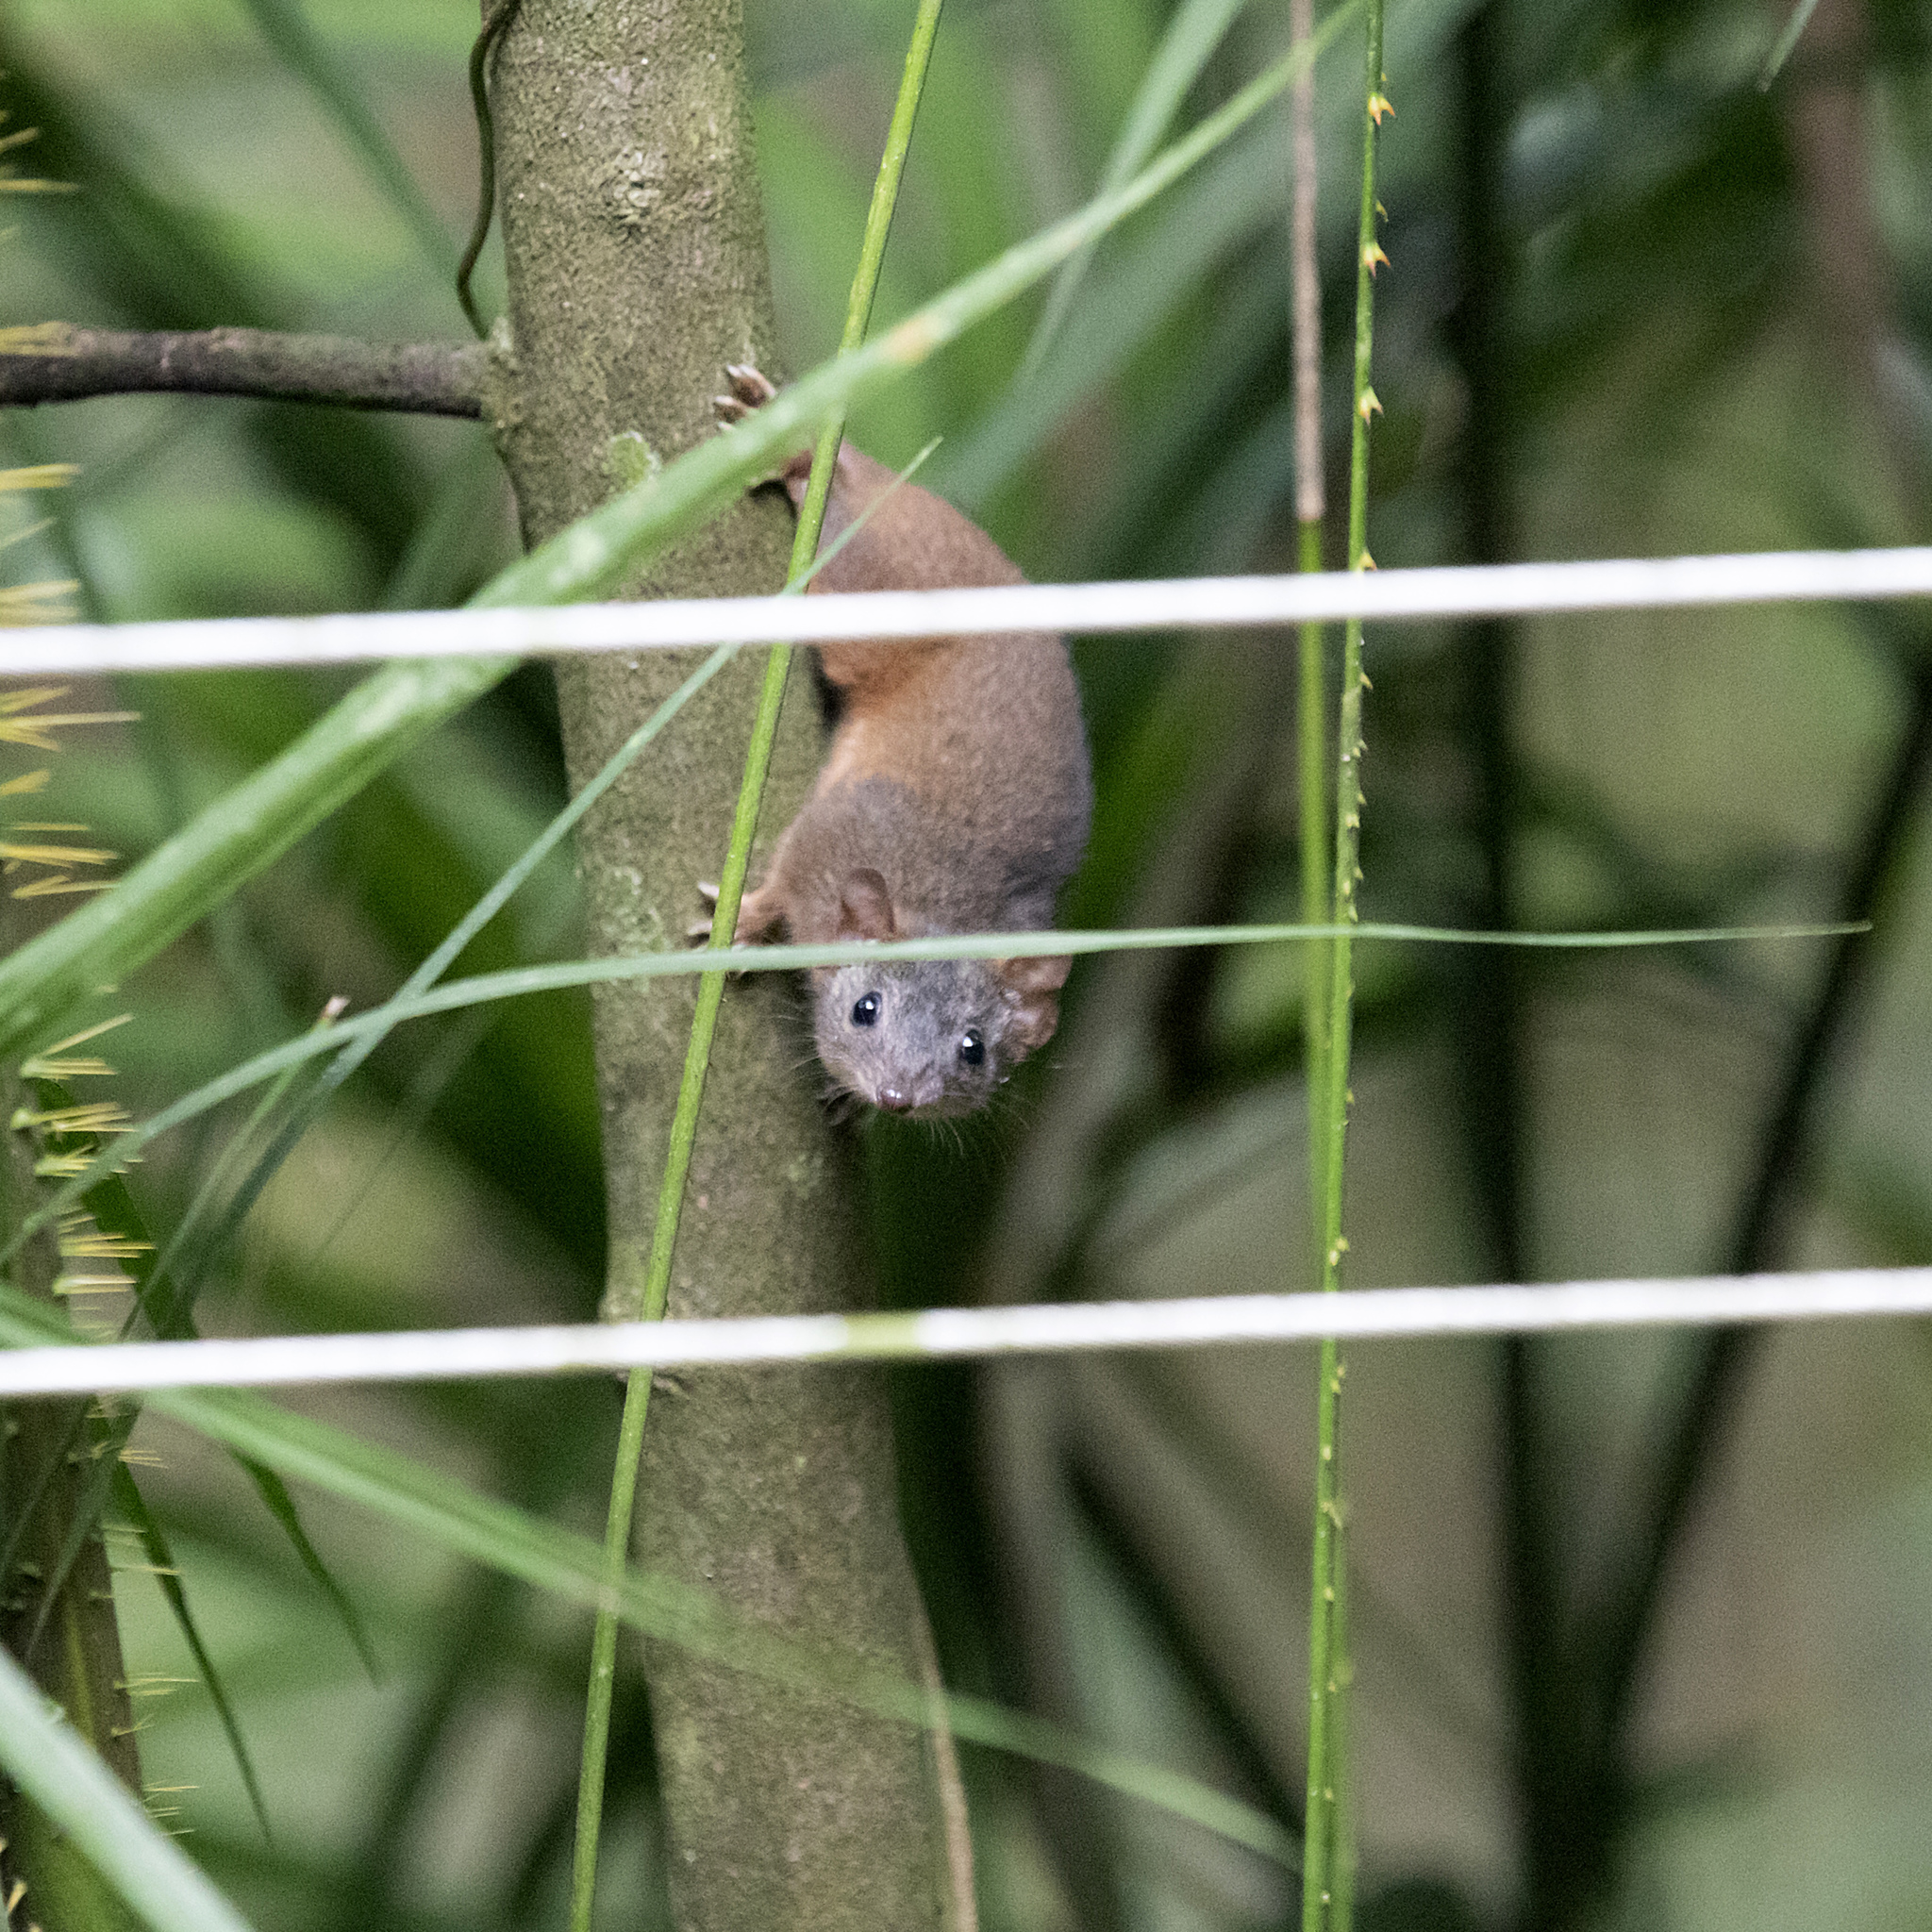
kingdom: Animalia
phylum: Chordata
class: Mammalia
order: Dasyuromorphia
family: Dasyuridae
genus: Antechinus
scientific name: Antechinus flavipes
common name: Yellow-footed antechinus
